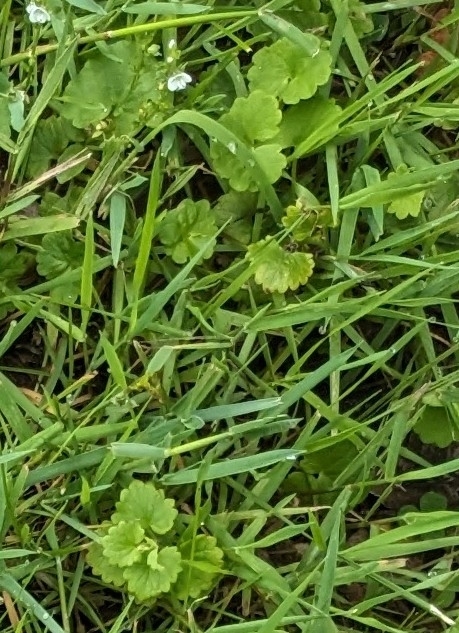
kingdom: Plantae
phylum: Tracheophyta
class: Magnoliopsida
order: Lamiales
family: Lamiaceae
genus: Glechoma
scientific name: Glechoma hederacea
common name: Ground ivy
